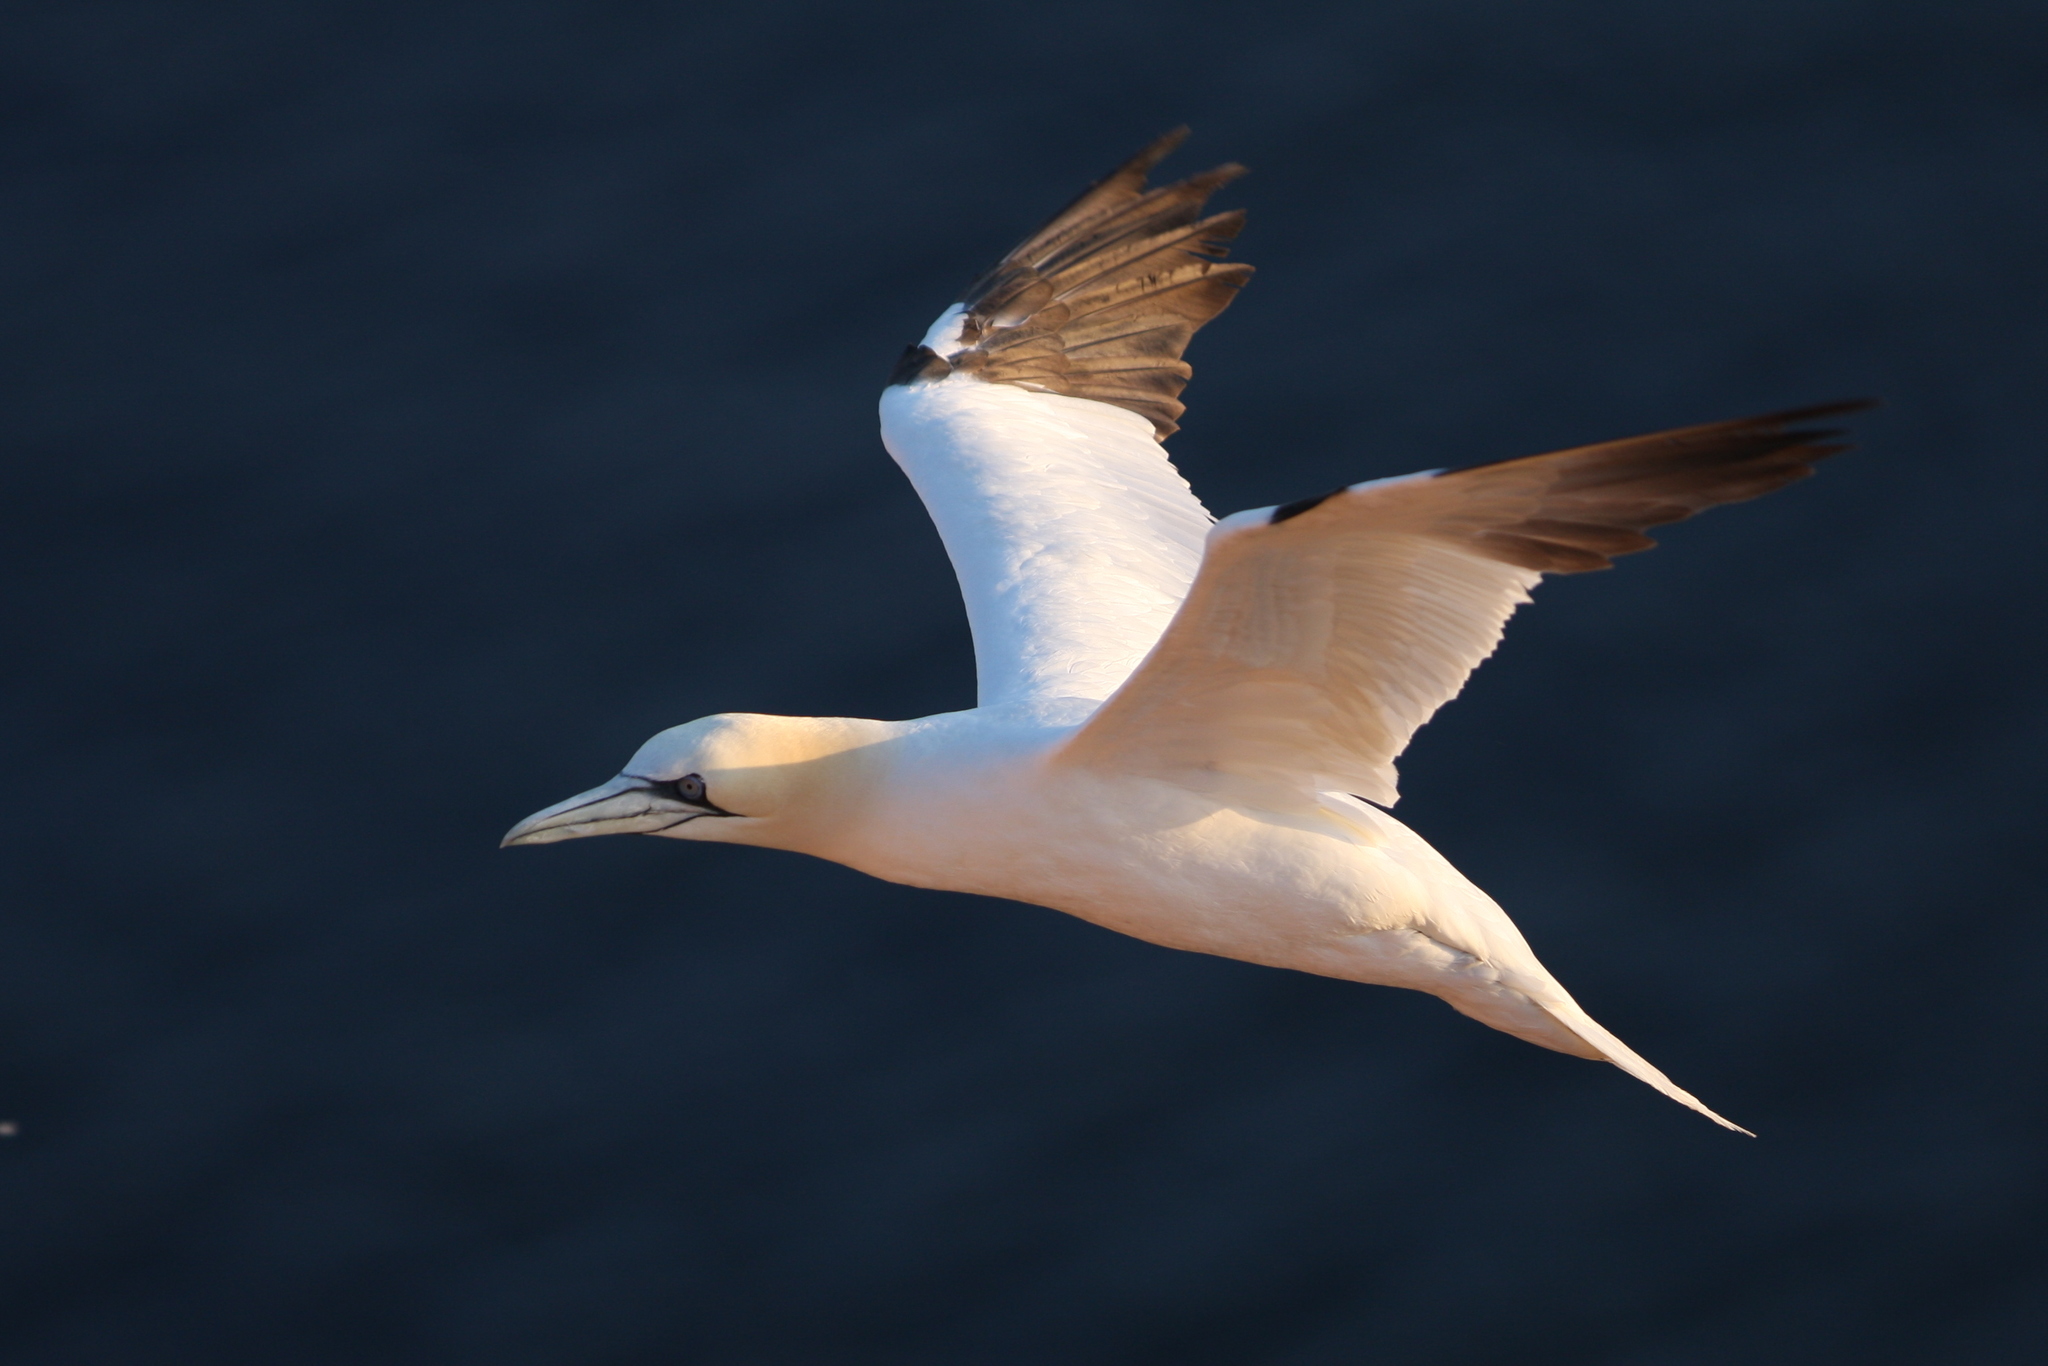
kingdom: Animalia
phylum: Chordata
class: Aves
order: Suliformes
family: Sulidae
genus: Morus
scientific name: Morus bassanus
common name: Northern gannet
